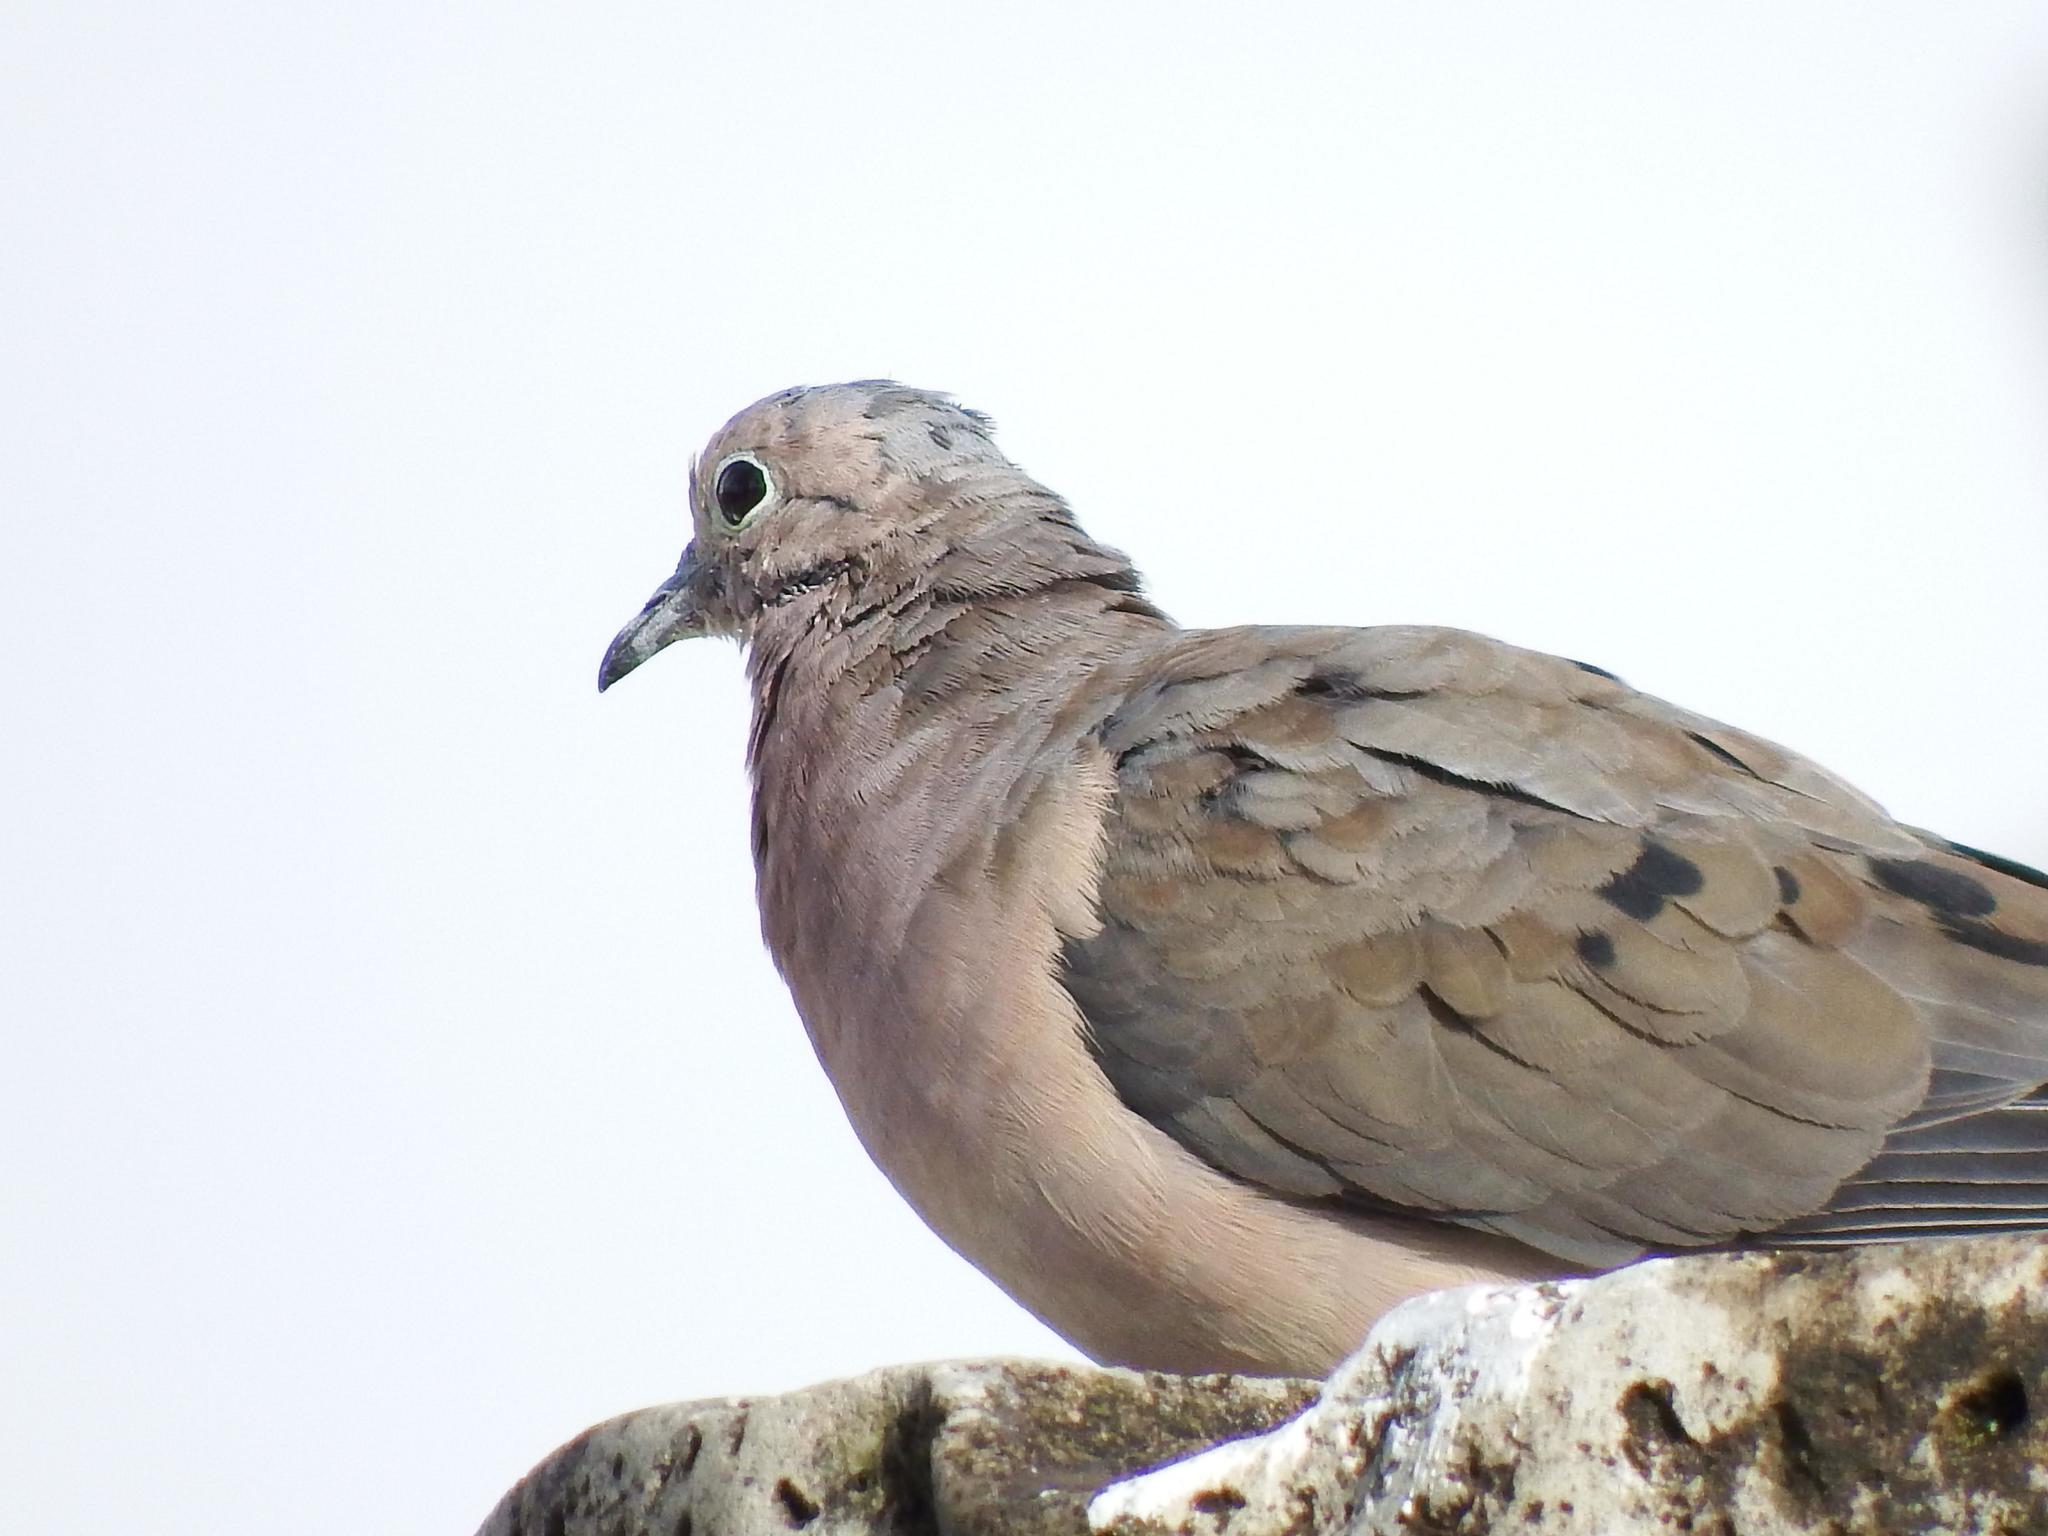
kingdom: Animalia
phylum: Chordata
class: Aves
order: Columbiformes
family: Columbidae
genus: Zenaida
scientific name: Zenaida auriculata
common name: Eared dove
